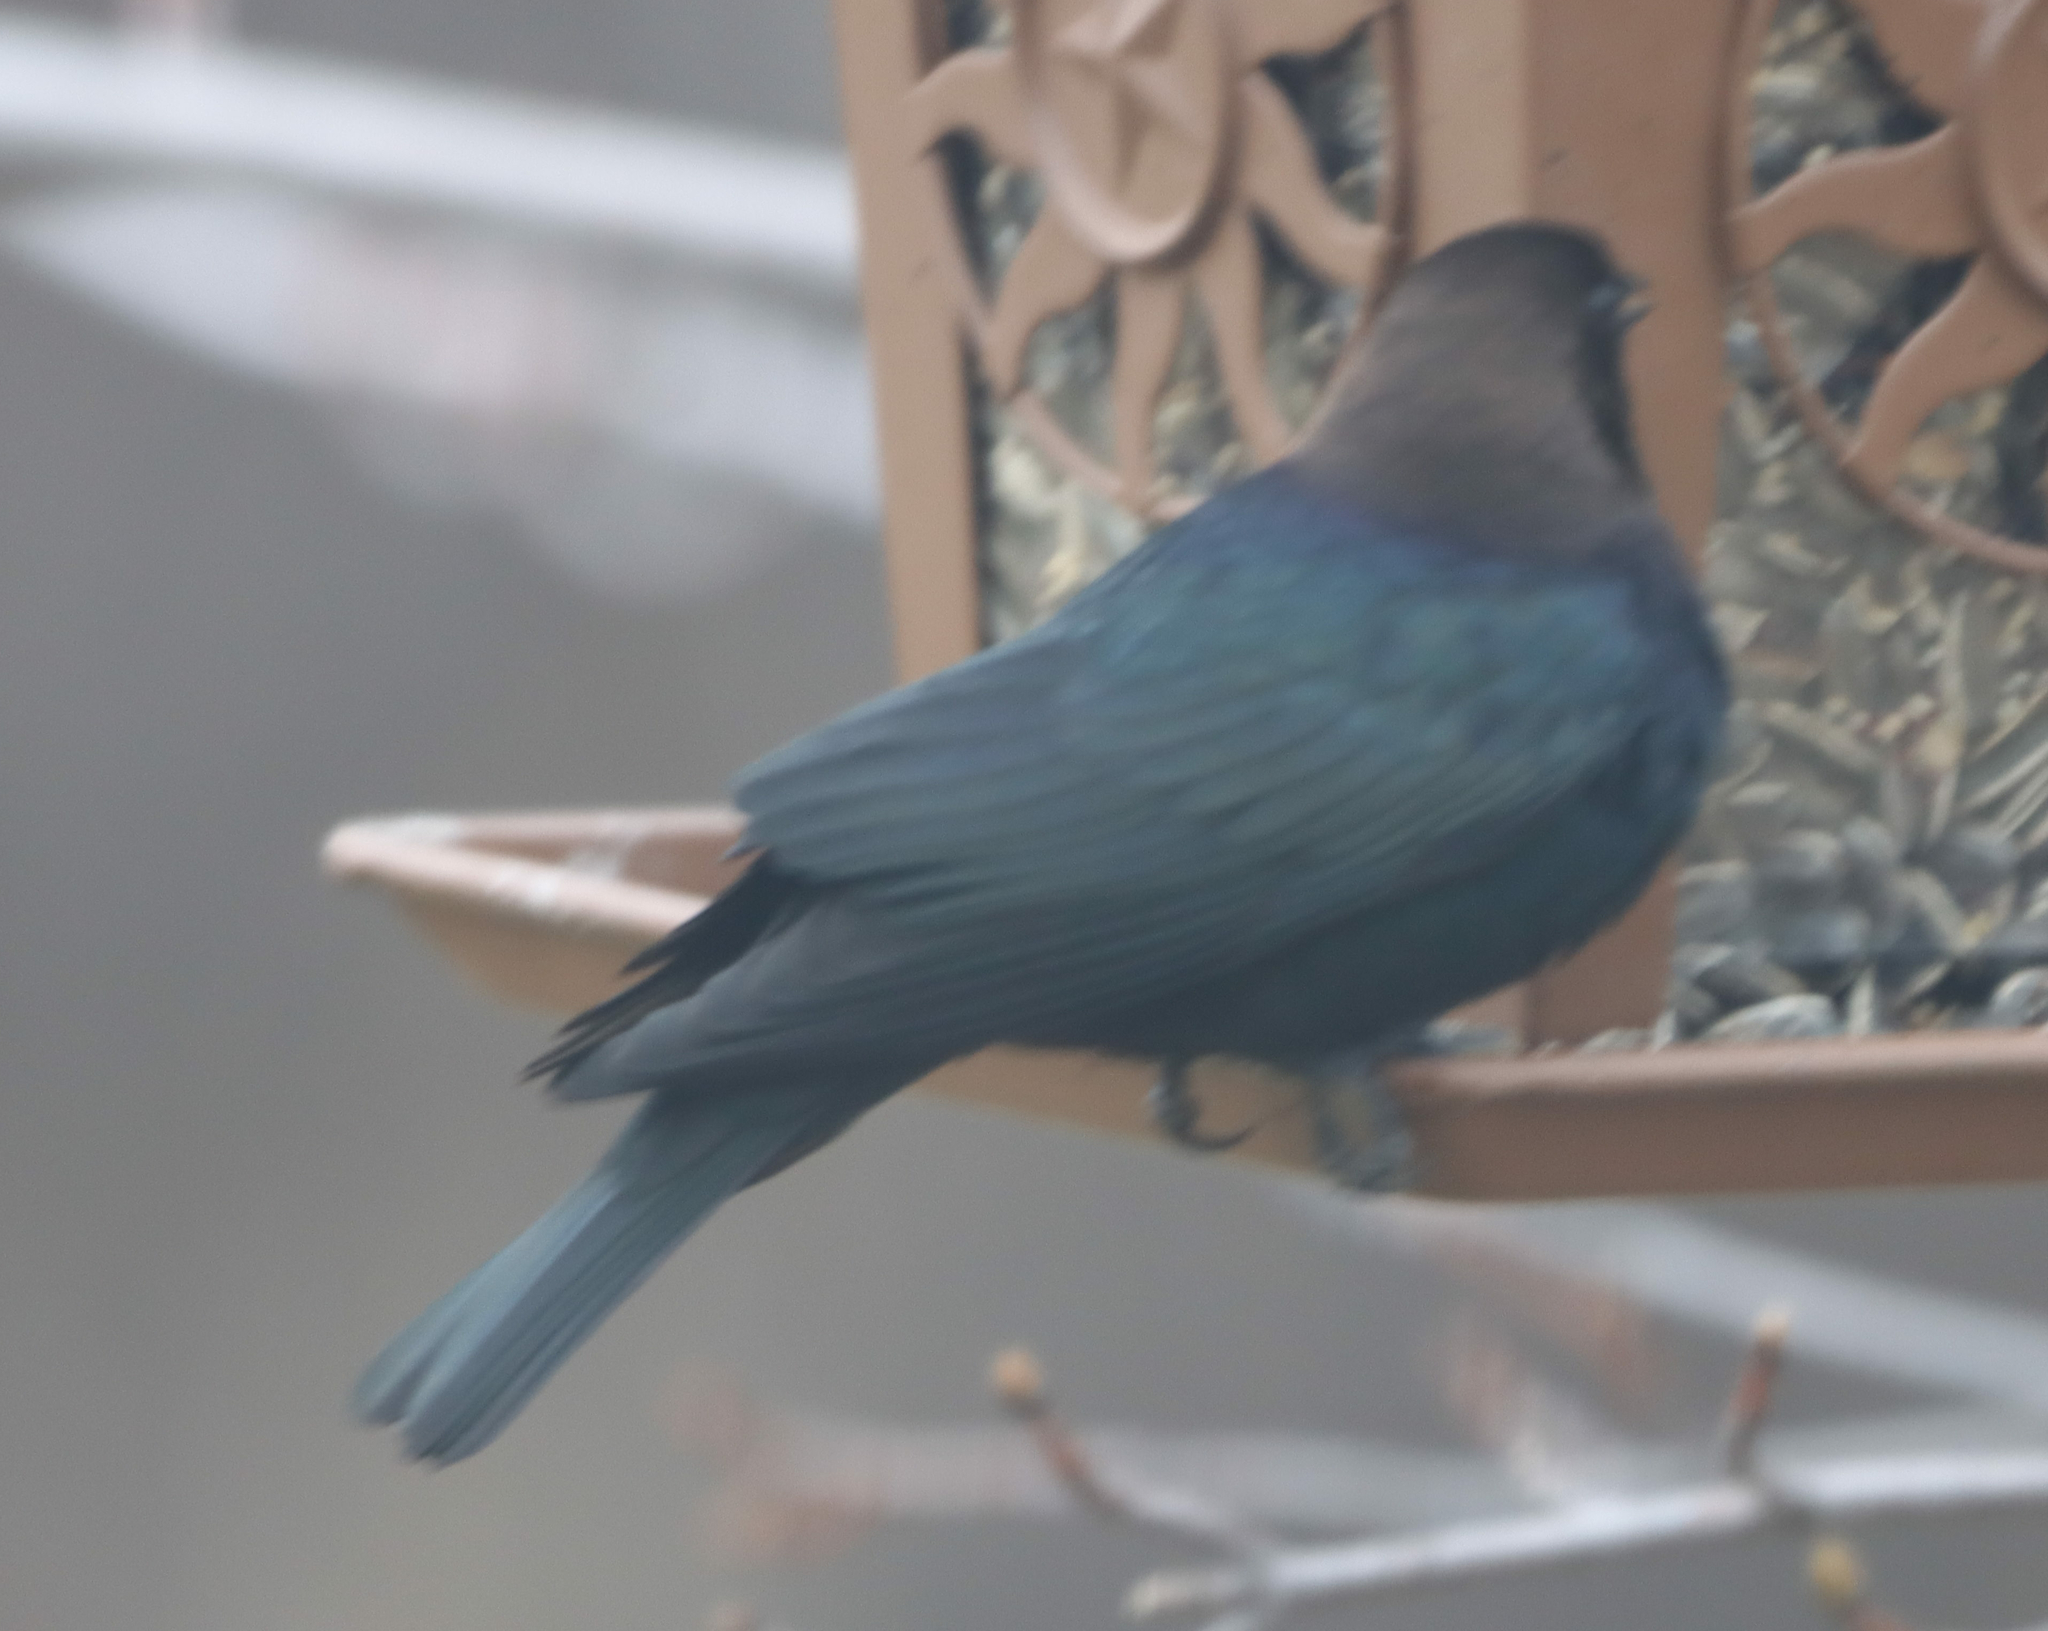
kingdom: Animalia
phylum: Chordata
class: Aves
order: Passeriformes
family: Icteridae
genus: Molothrus
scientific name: Molothrus ater
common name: Brown-headed cowbird
